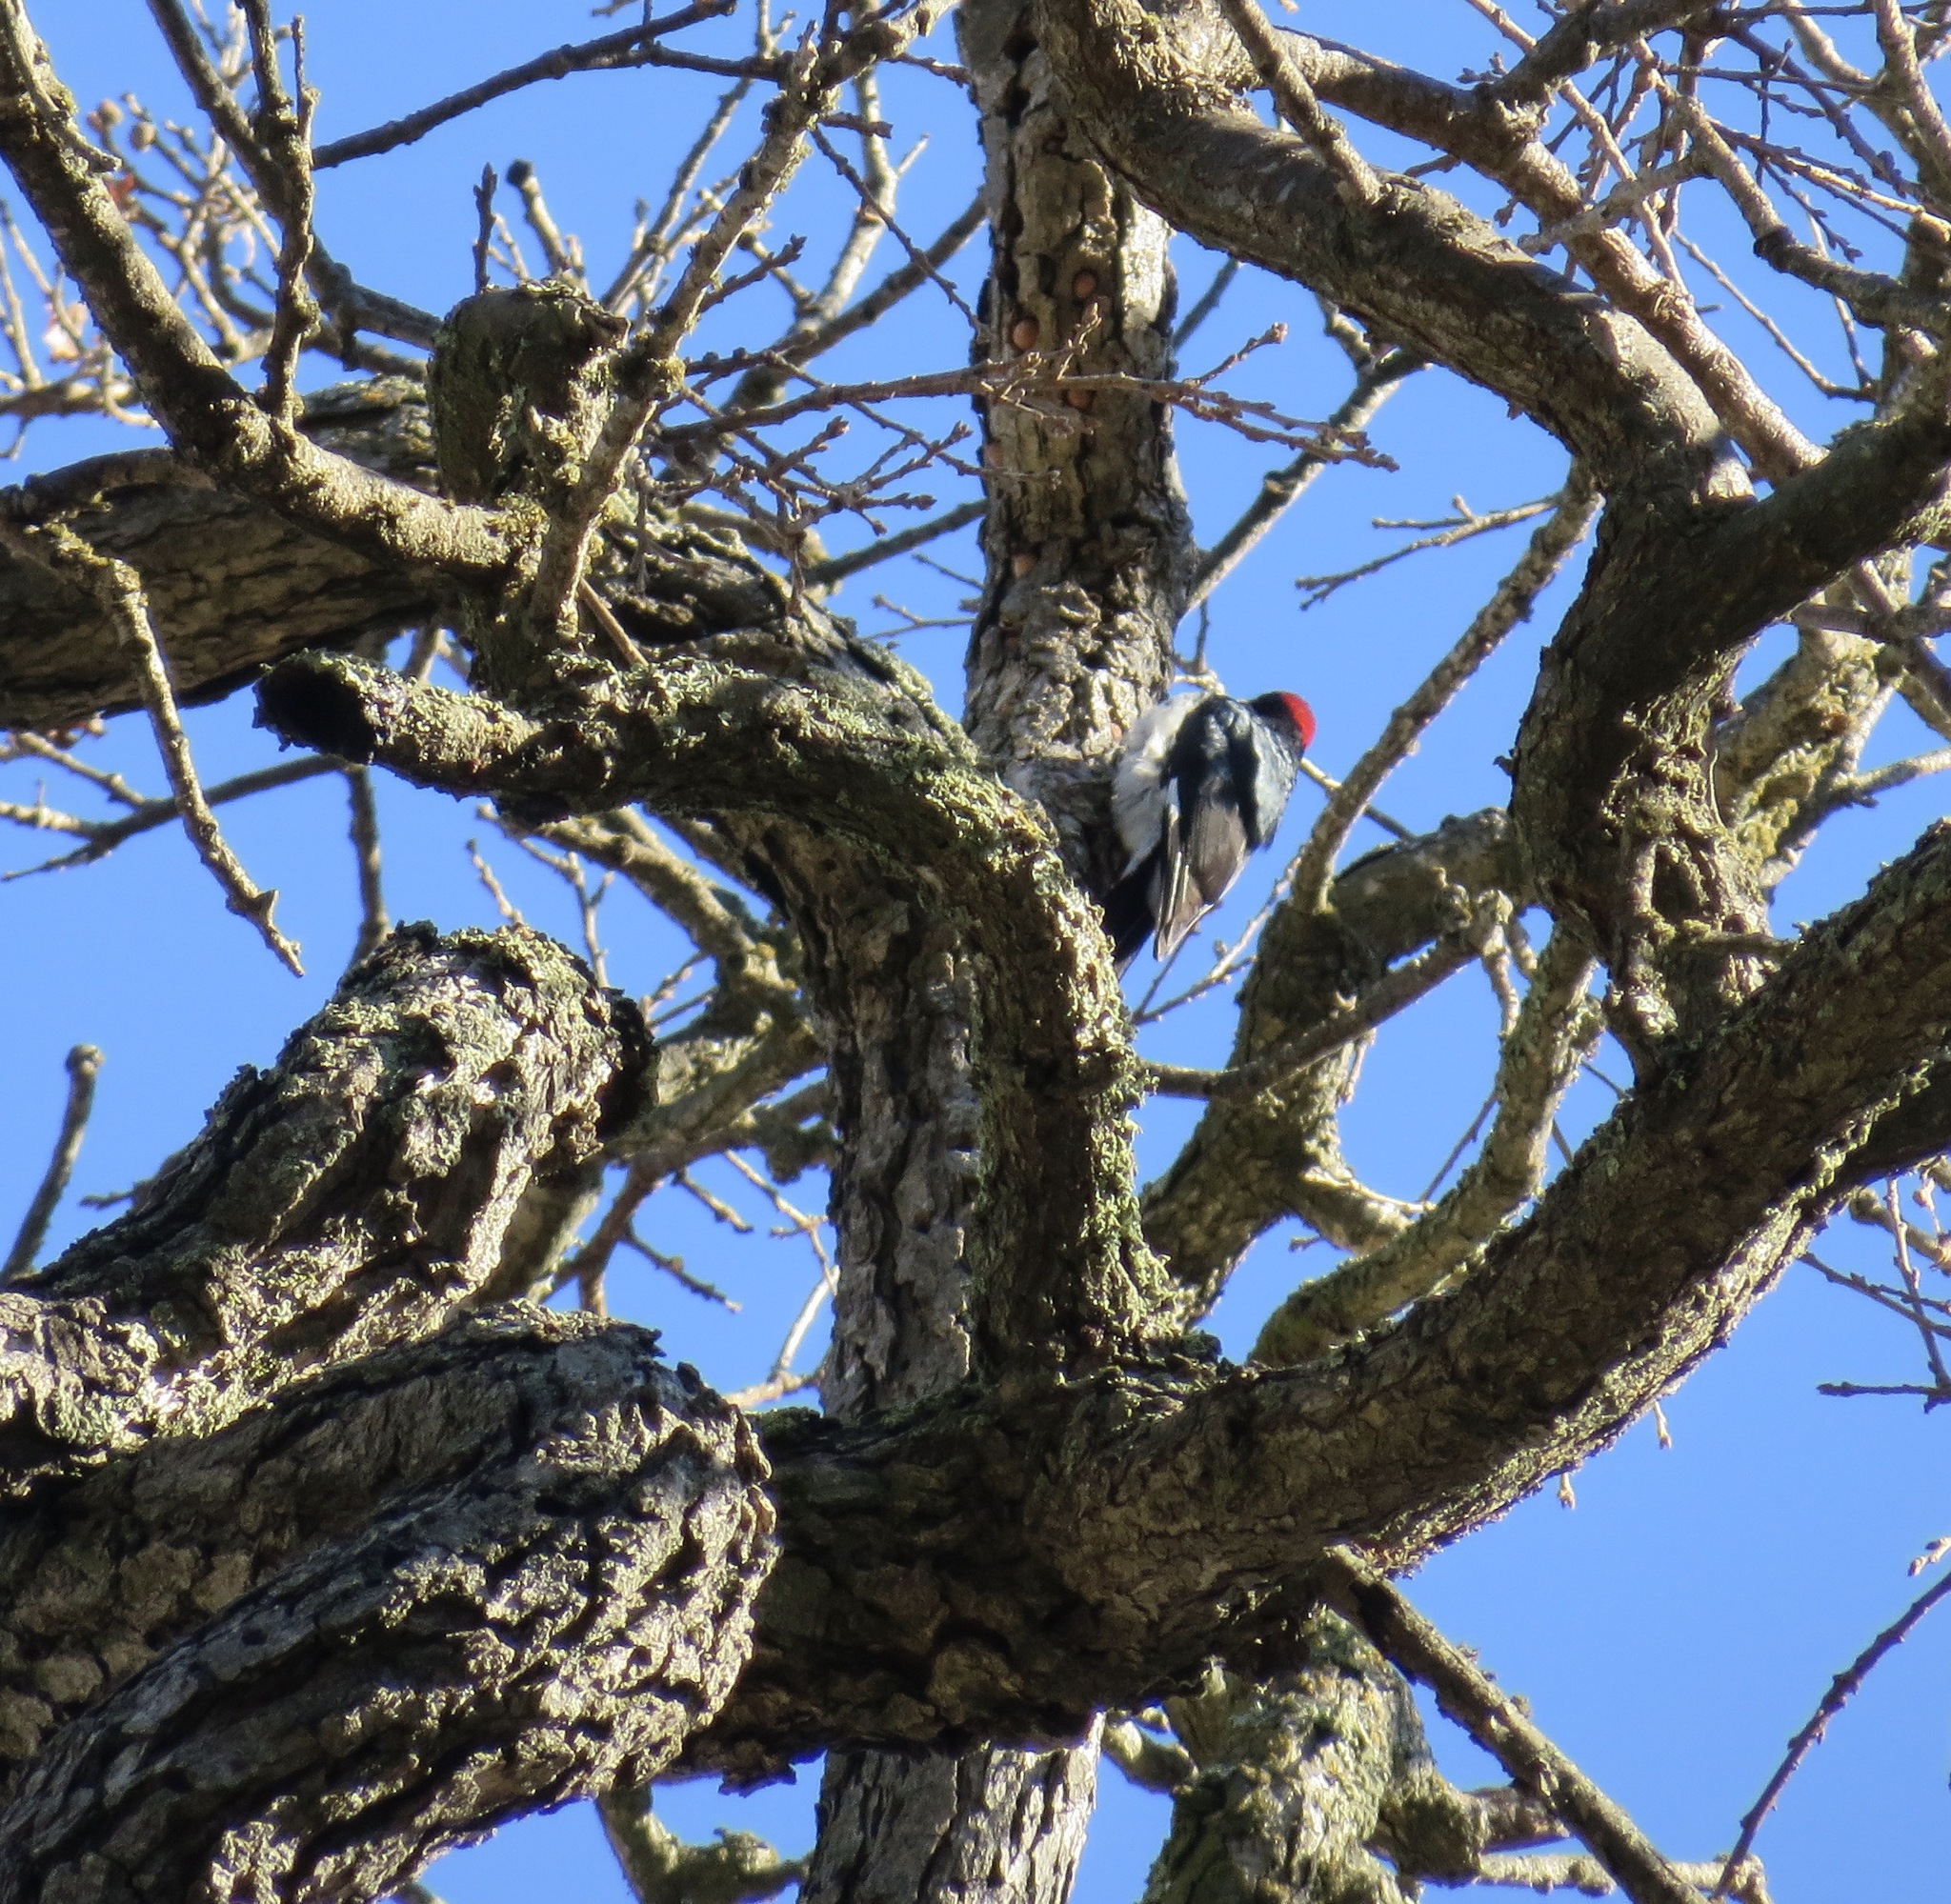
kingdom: Animalia
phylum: Chordata
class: Aves
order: Piciformes
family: Picidae
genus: Melanerpes
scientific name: Melanerpes formicivorus
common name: Acorn woodpecker
